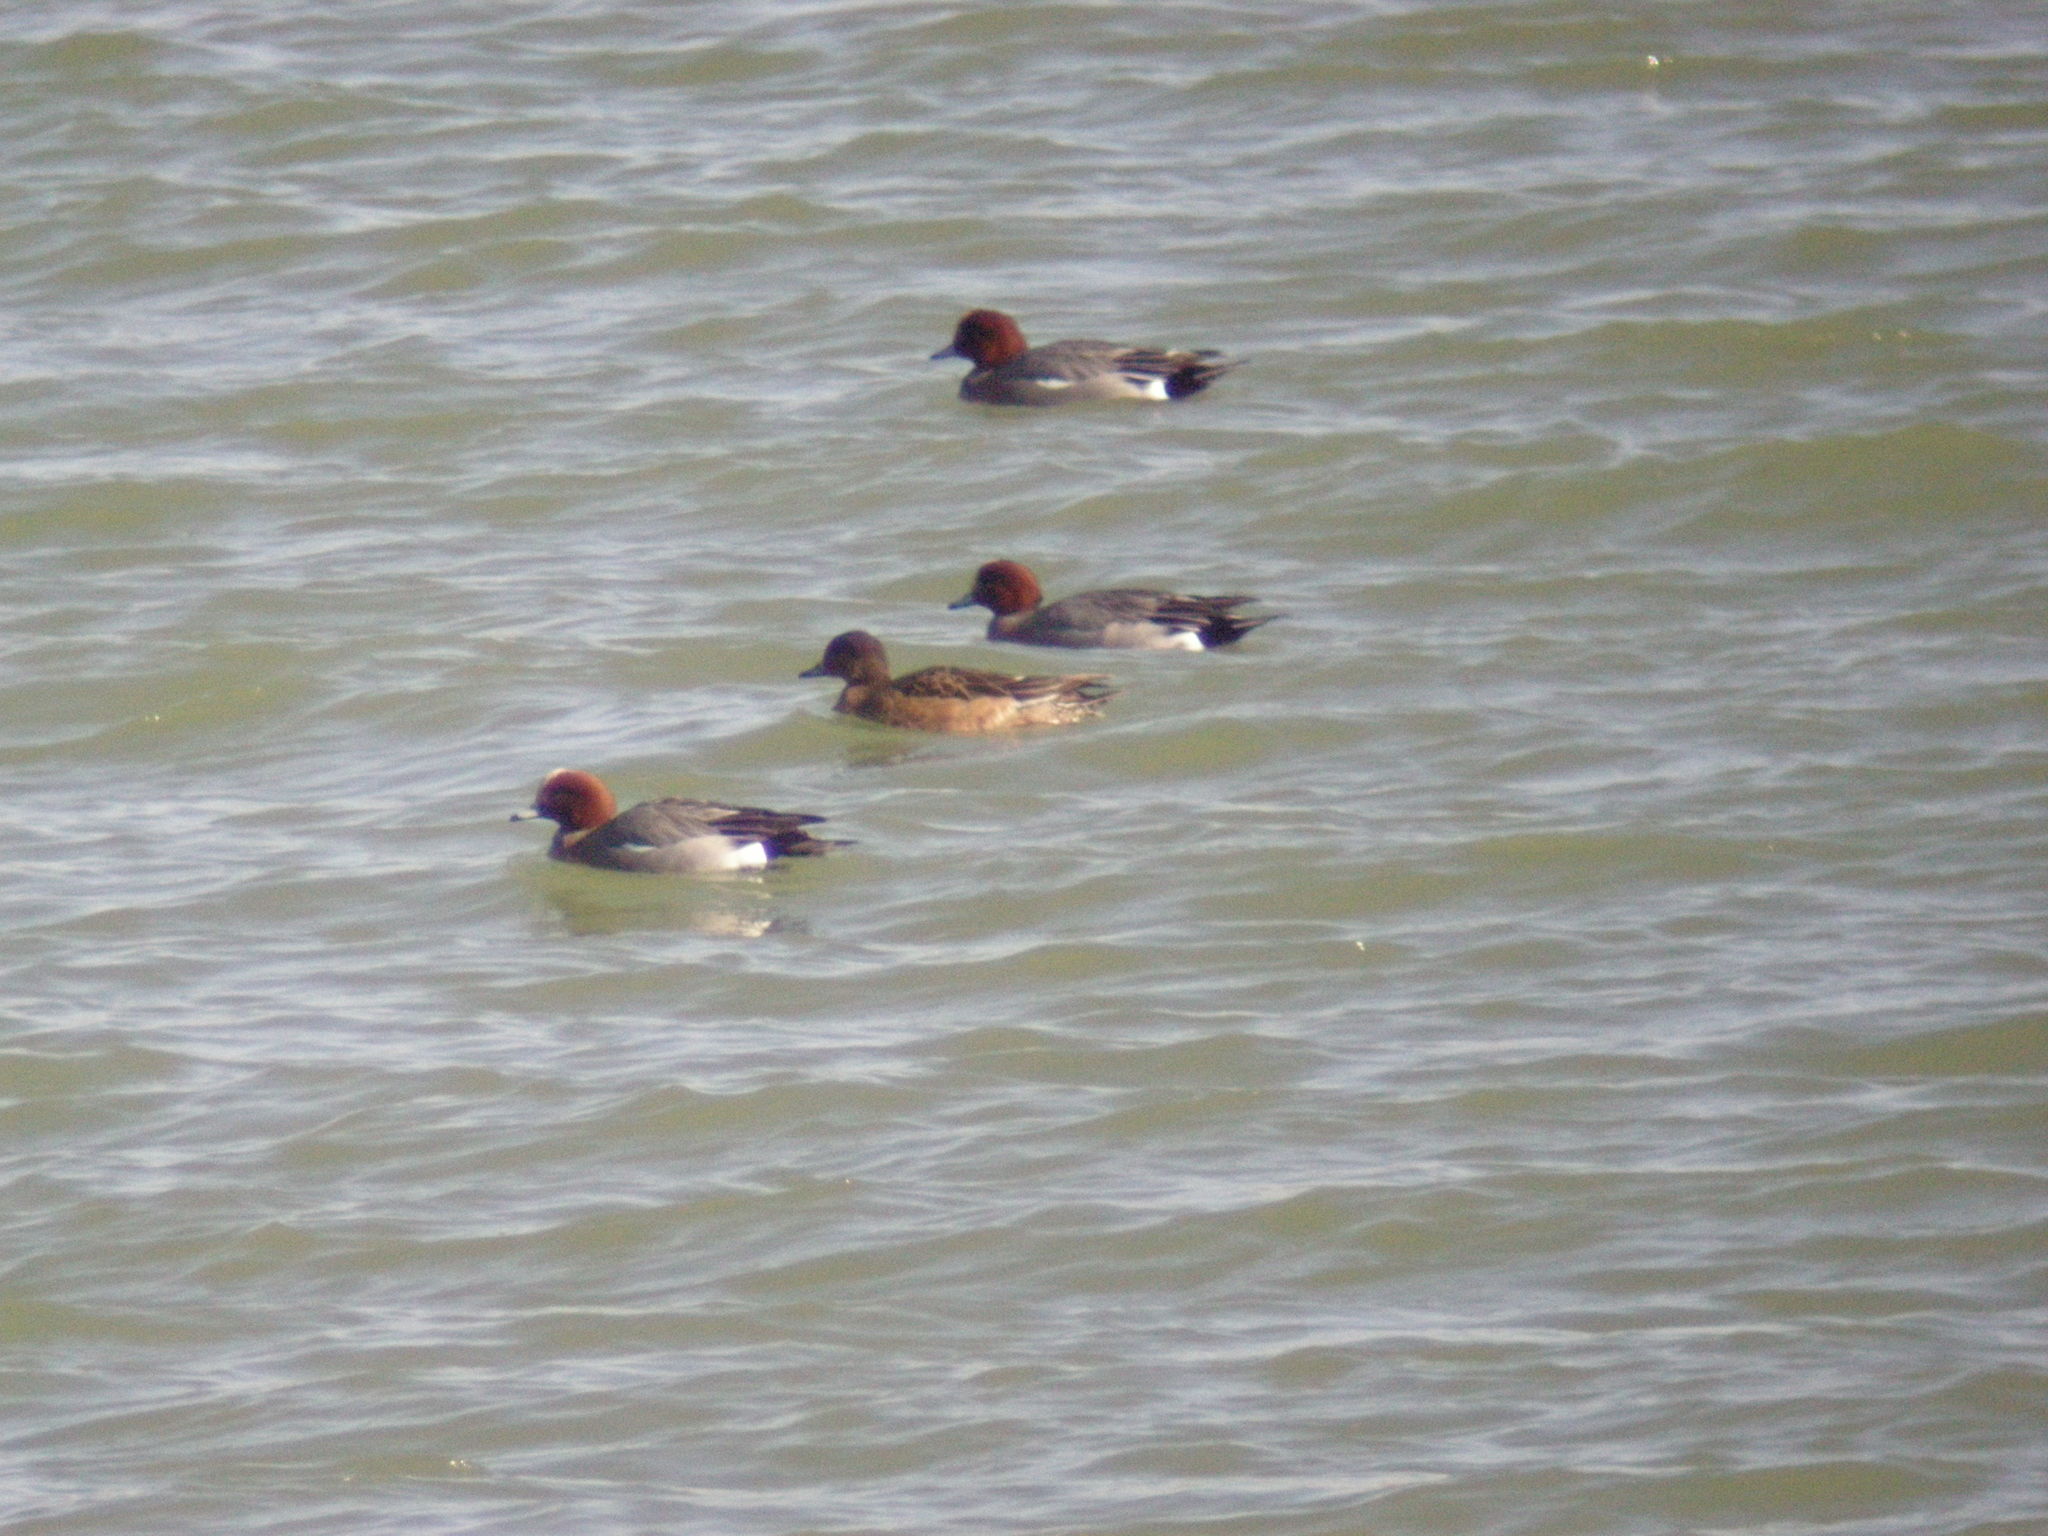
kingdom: Animalia
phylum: Chordata
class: Aves
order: Anseriformes
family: Anatidae
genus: Mareca
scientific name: Mareca penelope
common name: Eurasian wigeon
